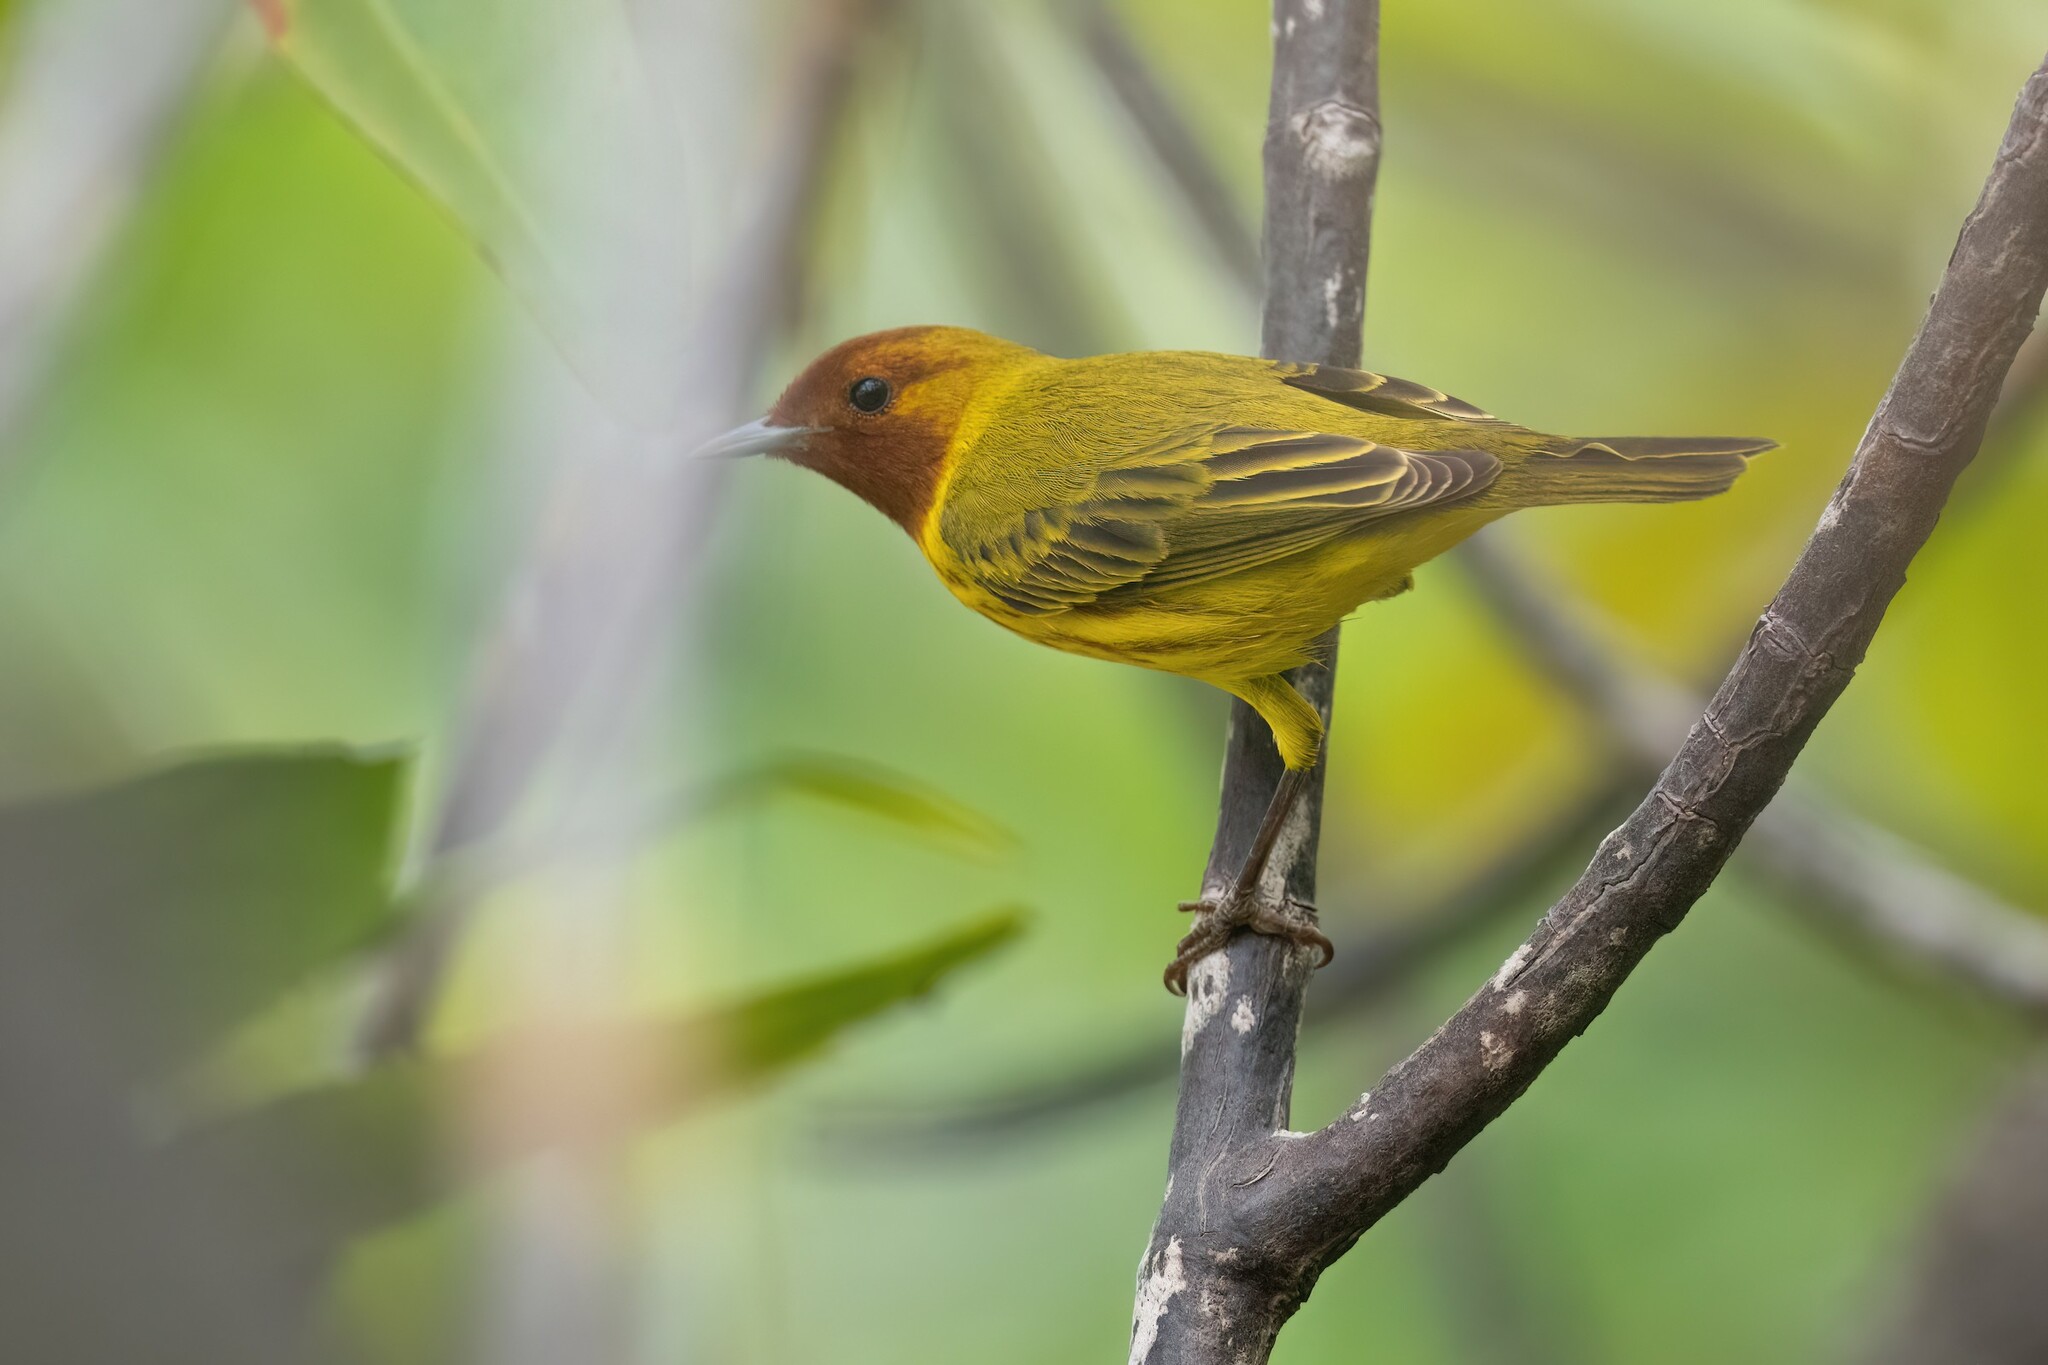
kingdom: Animalia
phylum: Chordata
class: Aves
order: Passeriformes
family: Parulidae
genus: Setophaga
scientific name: Setophaga petechia
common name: Yellow warbler
